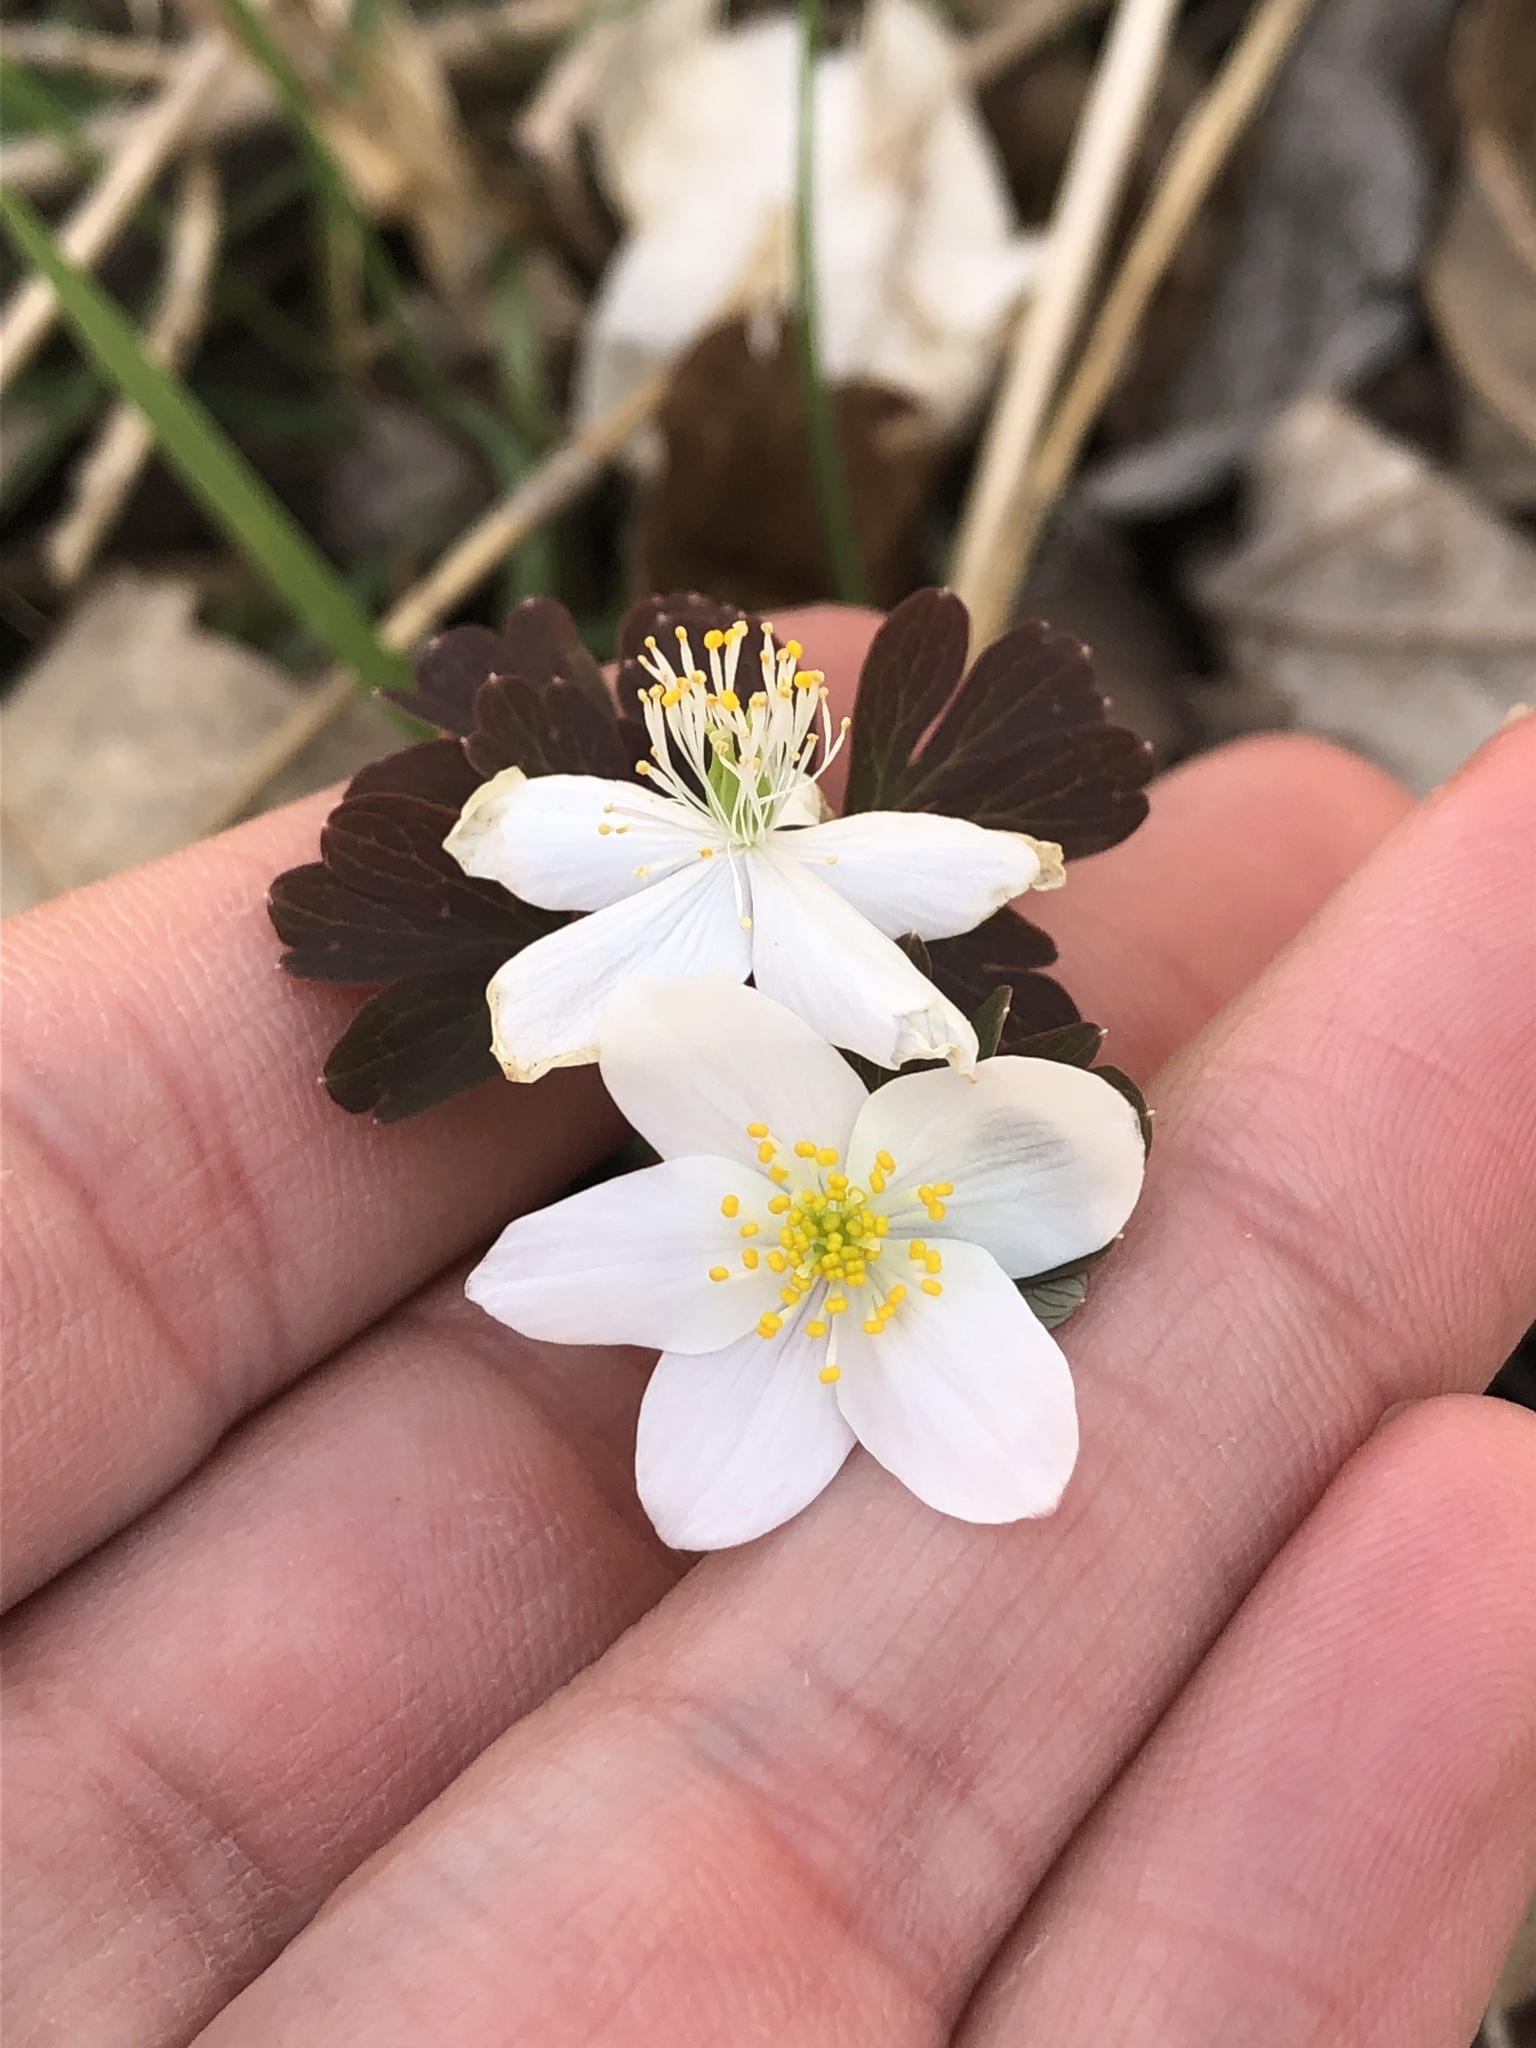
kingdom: Plantae
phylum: Tracheophyta
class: Magnoliopsida
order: Ranunculales
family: Ranunculaceae
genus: Enemion
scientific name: Enemion biternatum
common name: Eastern false rue-anemone
